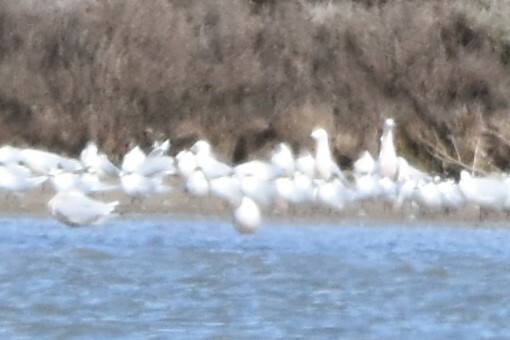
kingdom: Animalia
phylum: Chordata
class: Aves
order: Charadriiformes
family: Laridae
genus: Chroicocephalus
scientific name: Chroicocephalus genei
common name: Slender-billed gull
